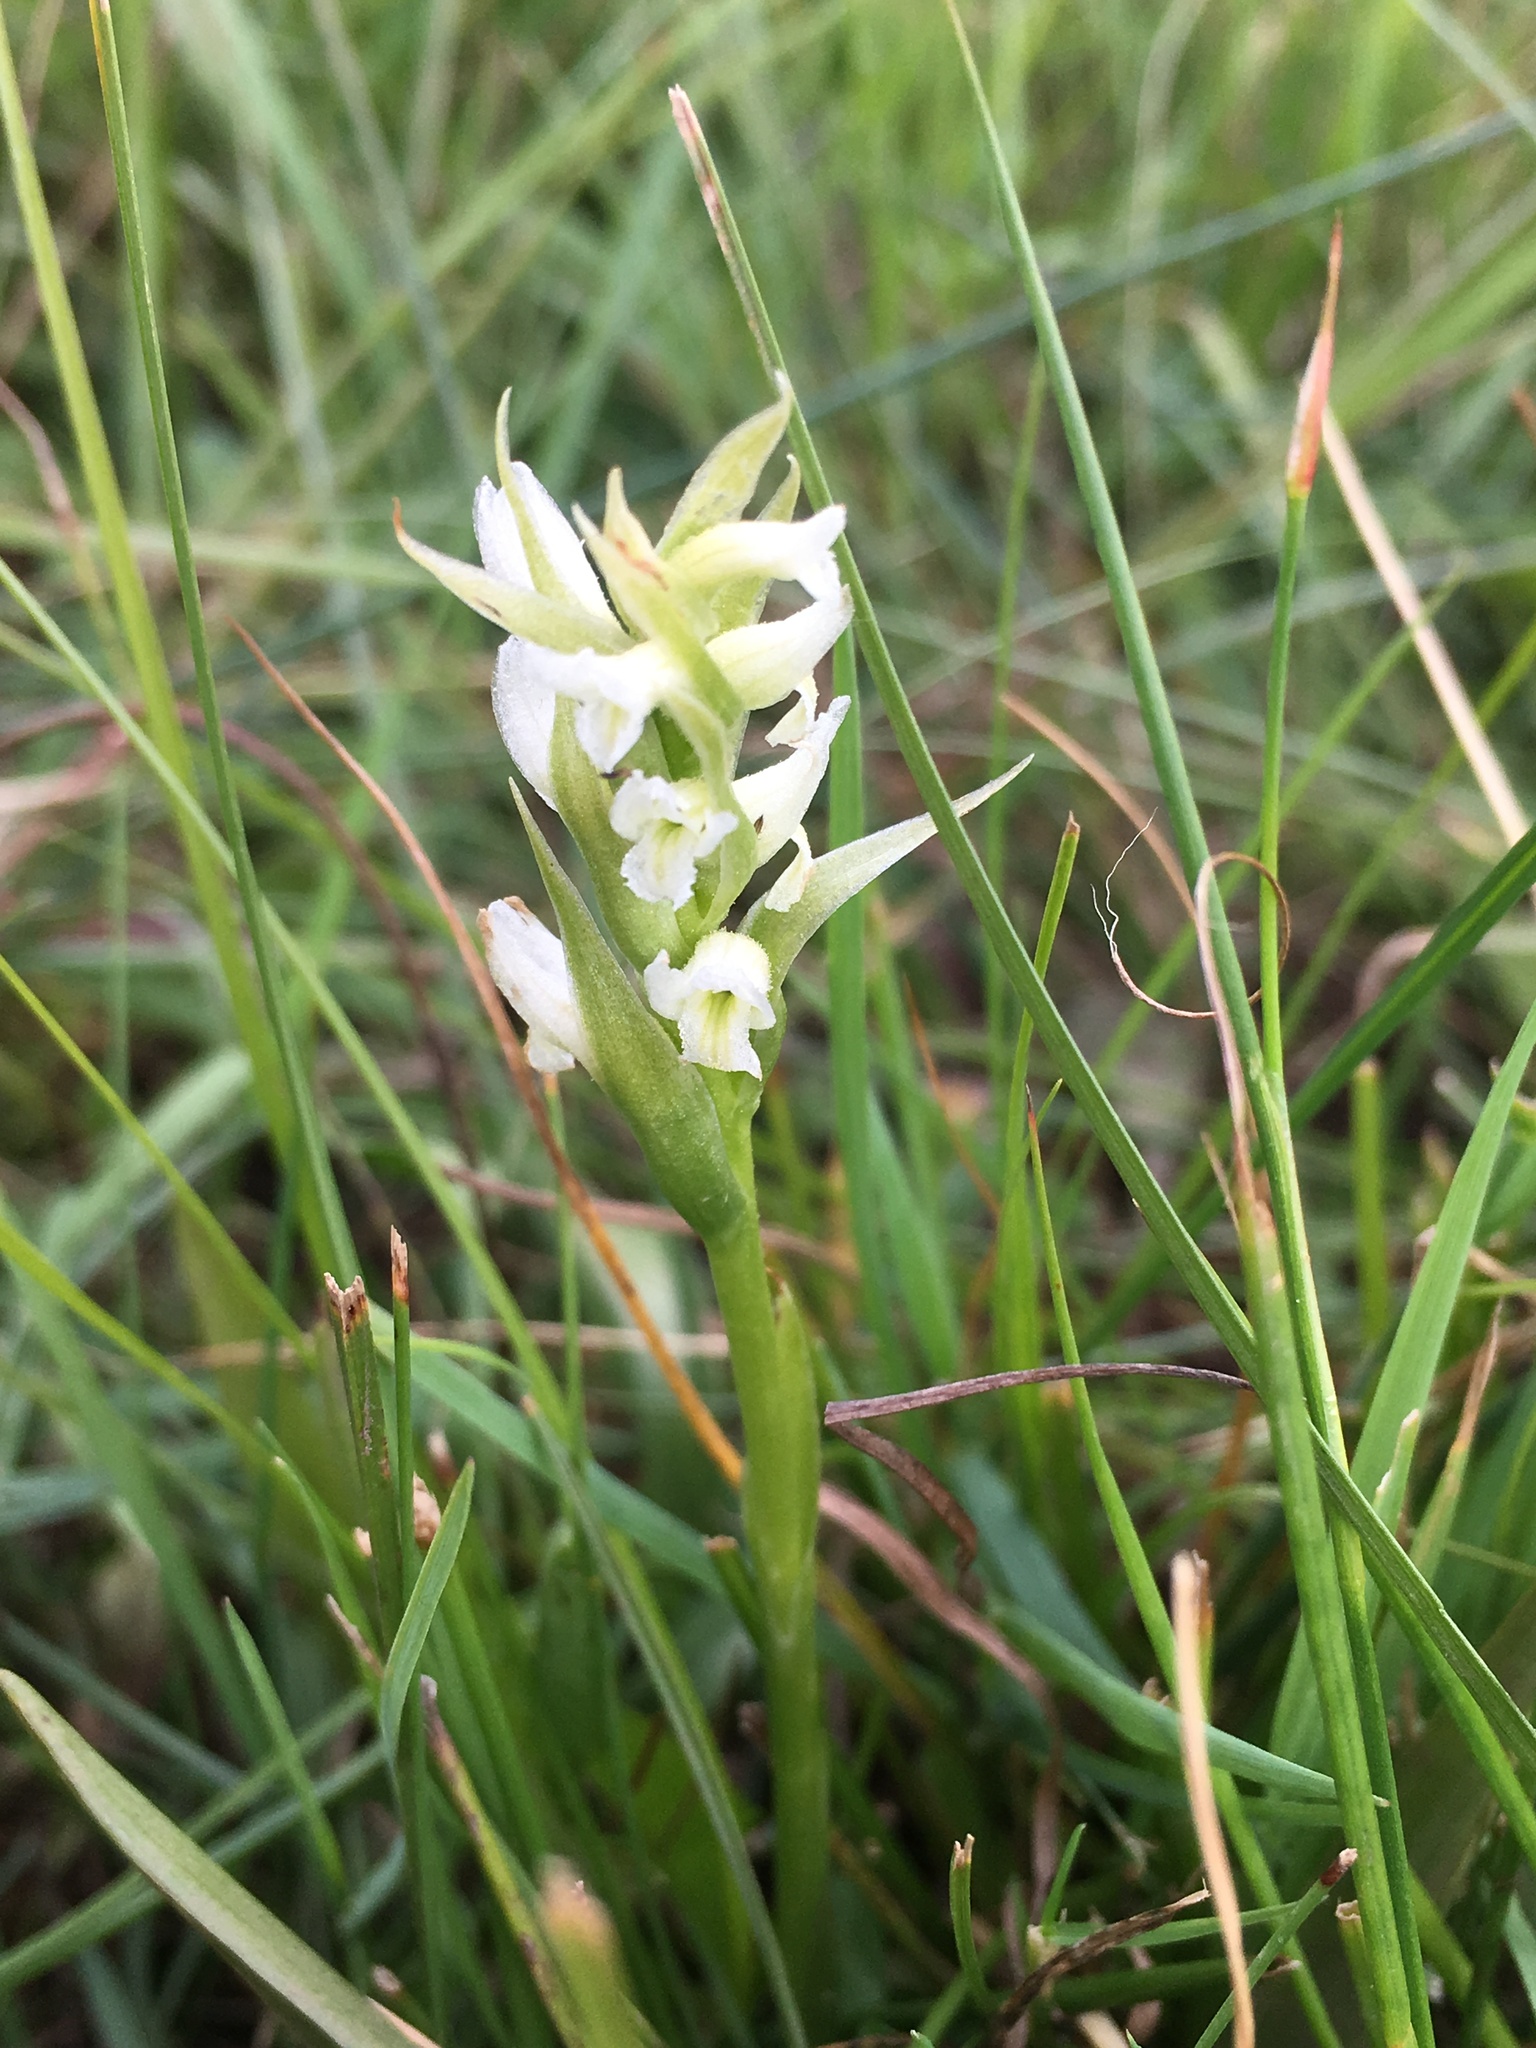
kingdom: Plantae
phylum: Tracheophyta
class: Liliopsida
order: Asparagales
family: Orchidaceae
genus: Spiranthes
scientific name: Spiranthes romanzoffiana
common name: Irish lady's-tresses
